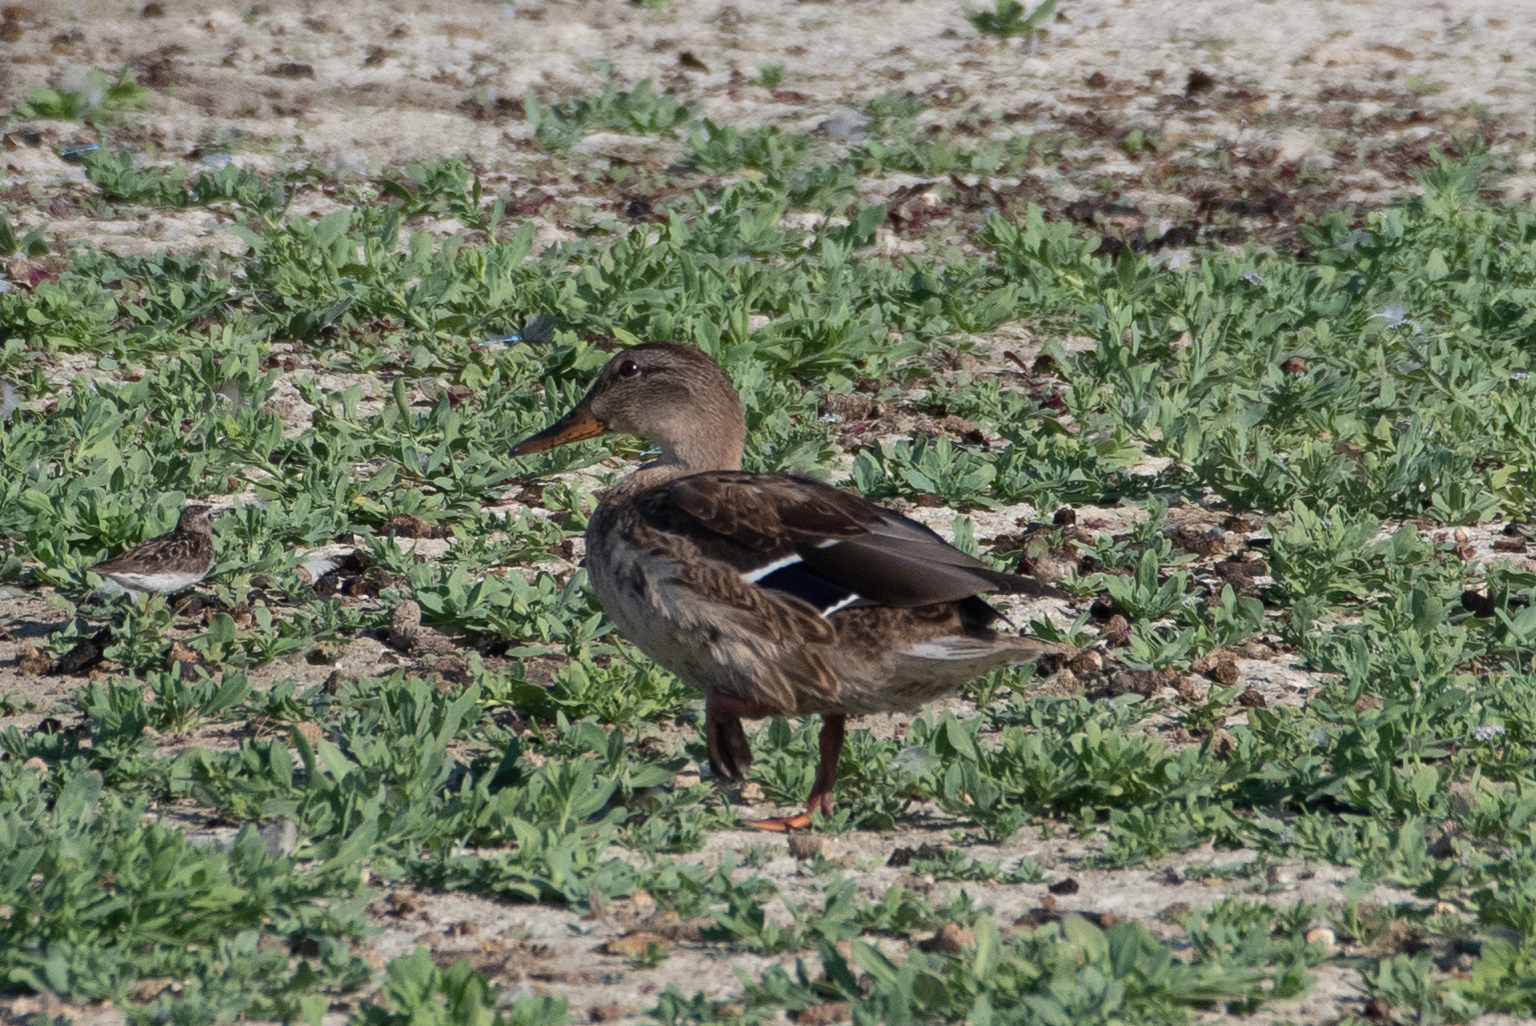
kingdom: Animalia
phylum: Chordata
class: Aves
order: Anseriformes
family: Anatidae
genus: Anas
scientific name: Anas platyrhynchos
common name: Mallard
